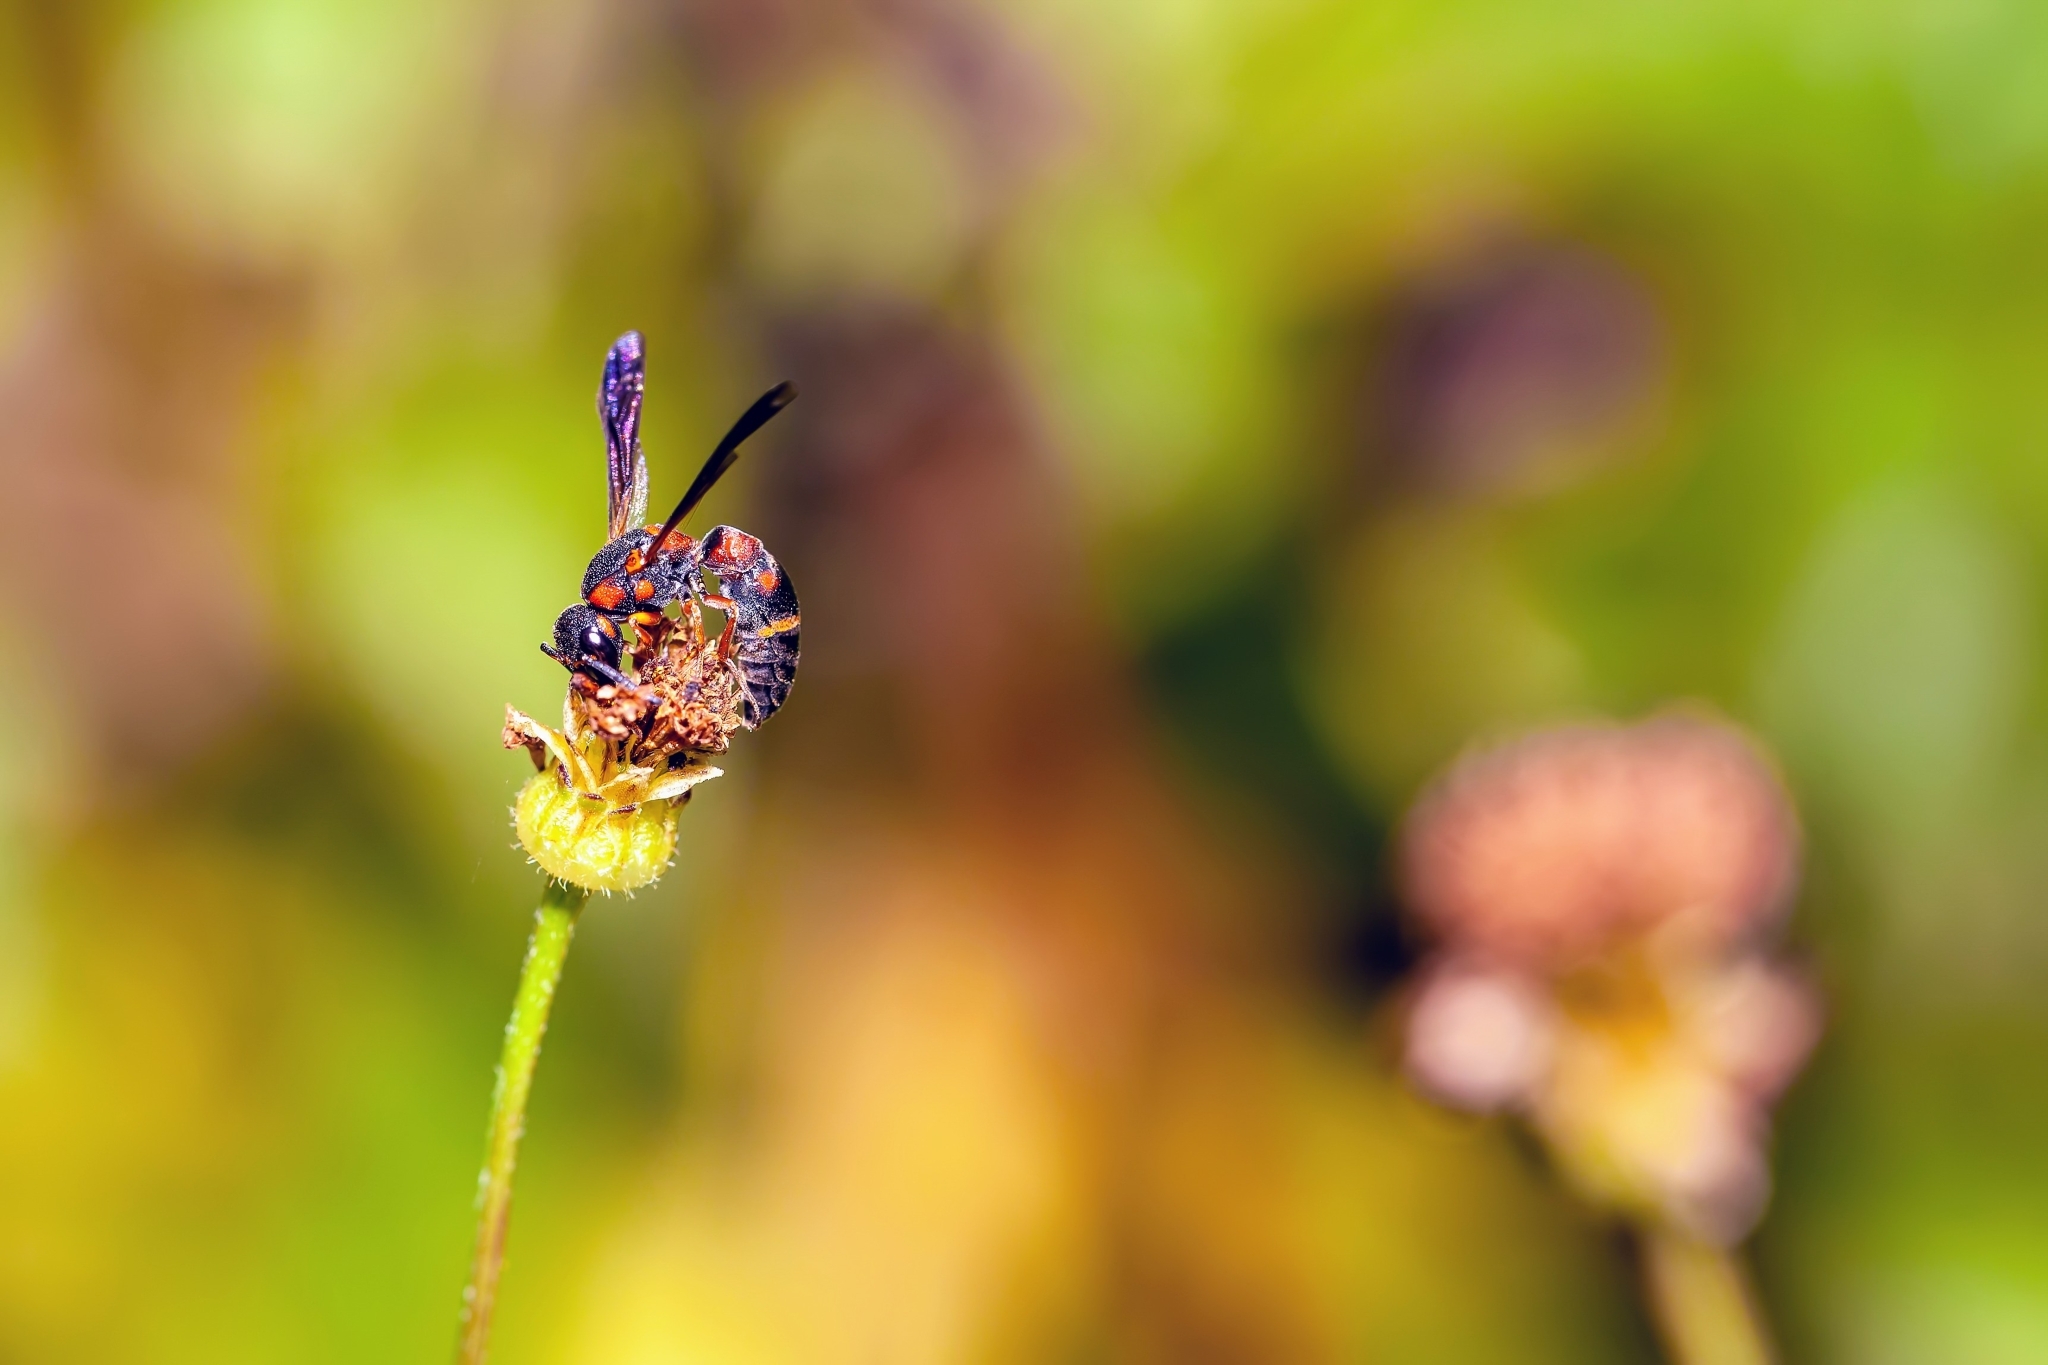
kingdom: Animalia
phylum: Arthropoda
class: Insecta
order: Hymenoptera
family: Eumenidae
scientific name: Eumenidae
